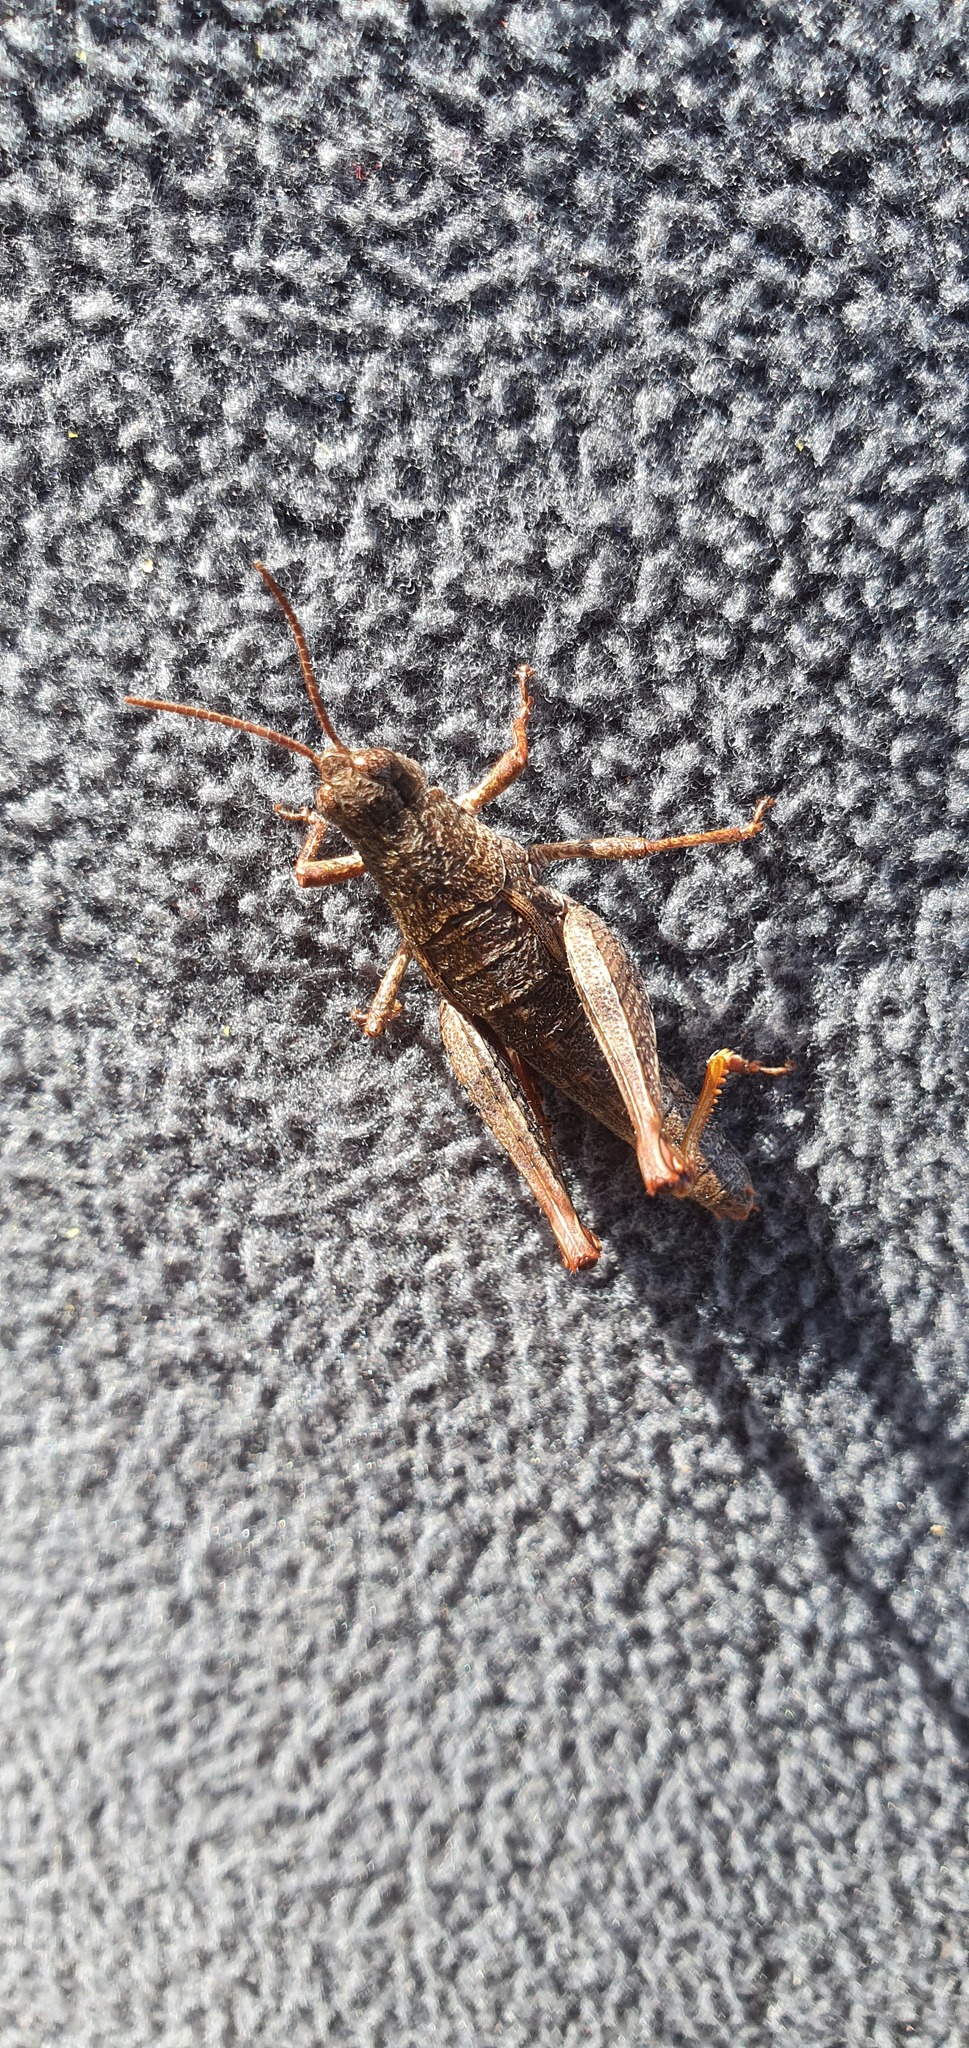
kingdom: Animalia
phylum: Arthropoda
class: Insecta
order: Orthoptera
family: Acrididae
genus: Tasmaniacris
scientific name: Tasmaniacris tasmaniensis
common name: Tasmanian grasshopper
